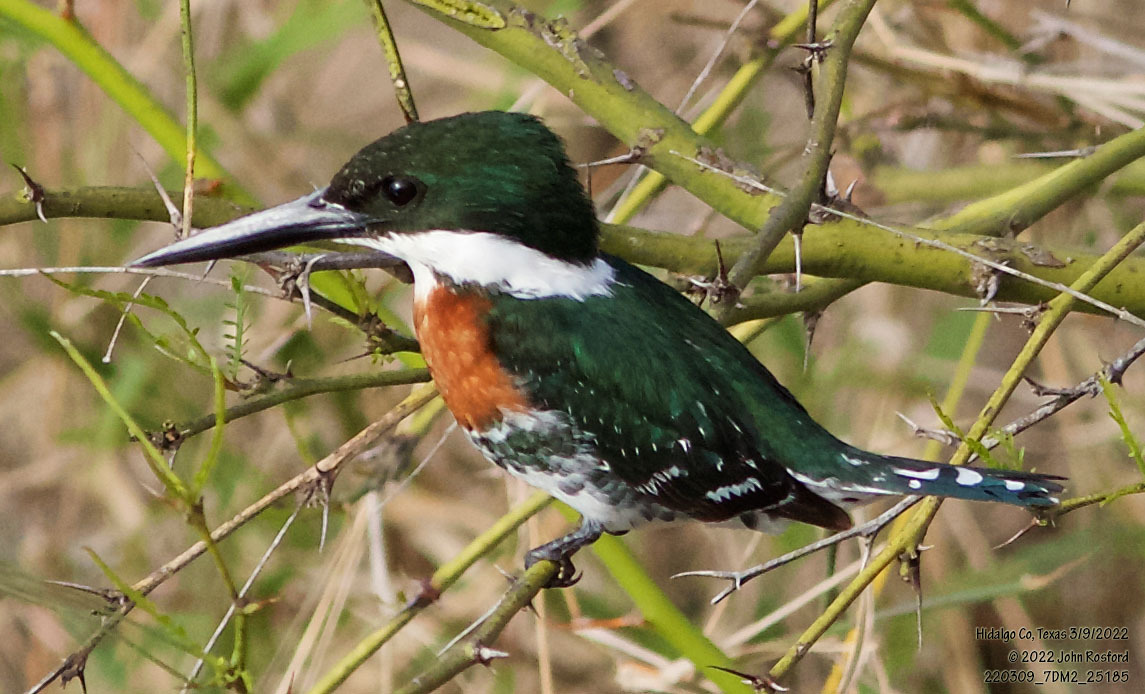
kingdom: Animalia
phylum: Chordata
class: Aves
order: Coraciiformes
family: Alcedinidae
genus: Chloroceryle
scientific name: Chloroceryle americana
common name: Green kingfisher
